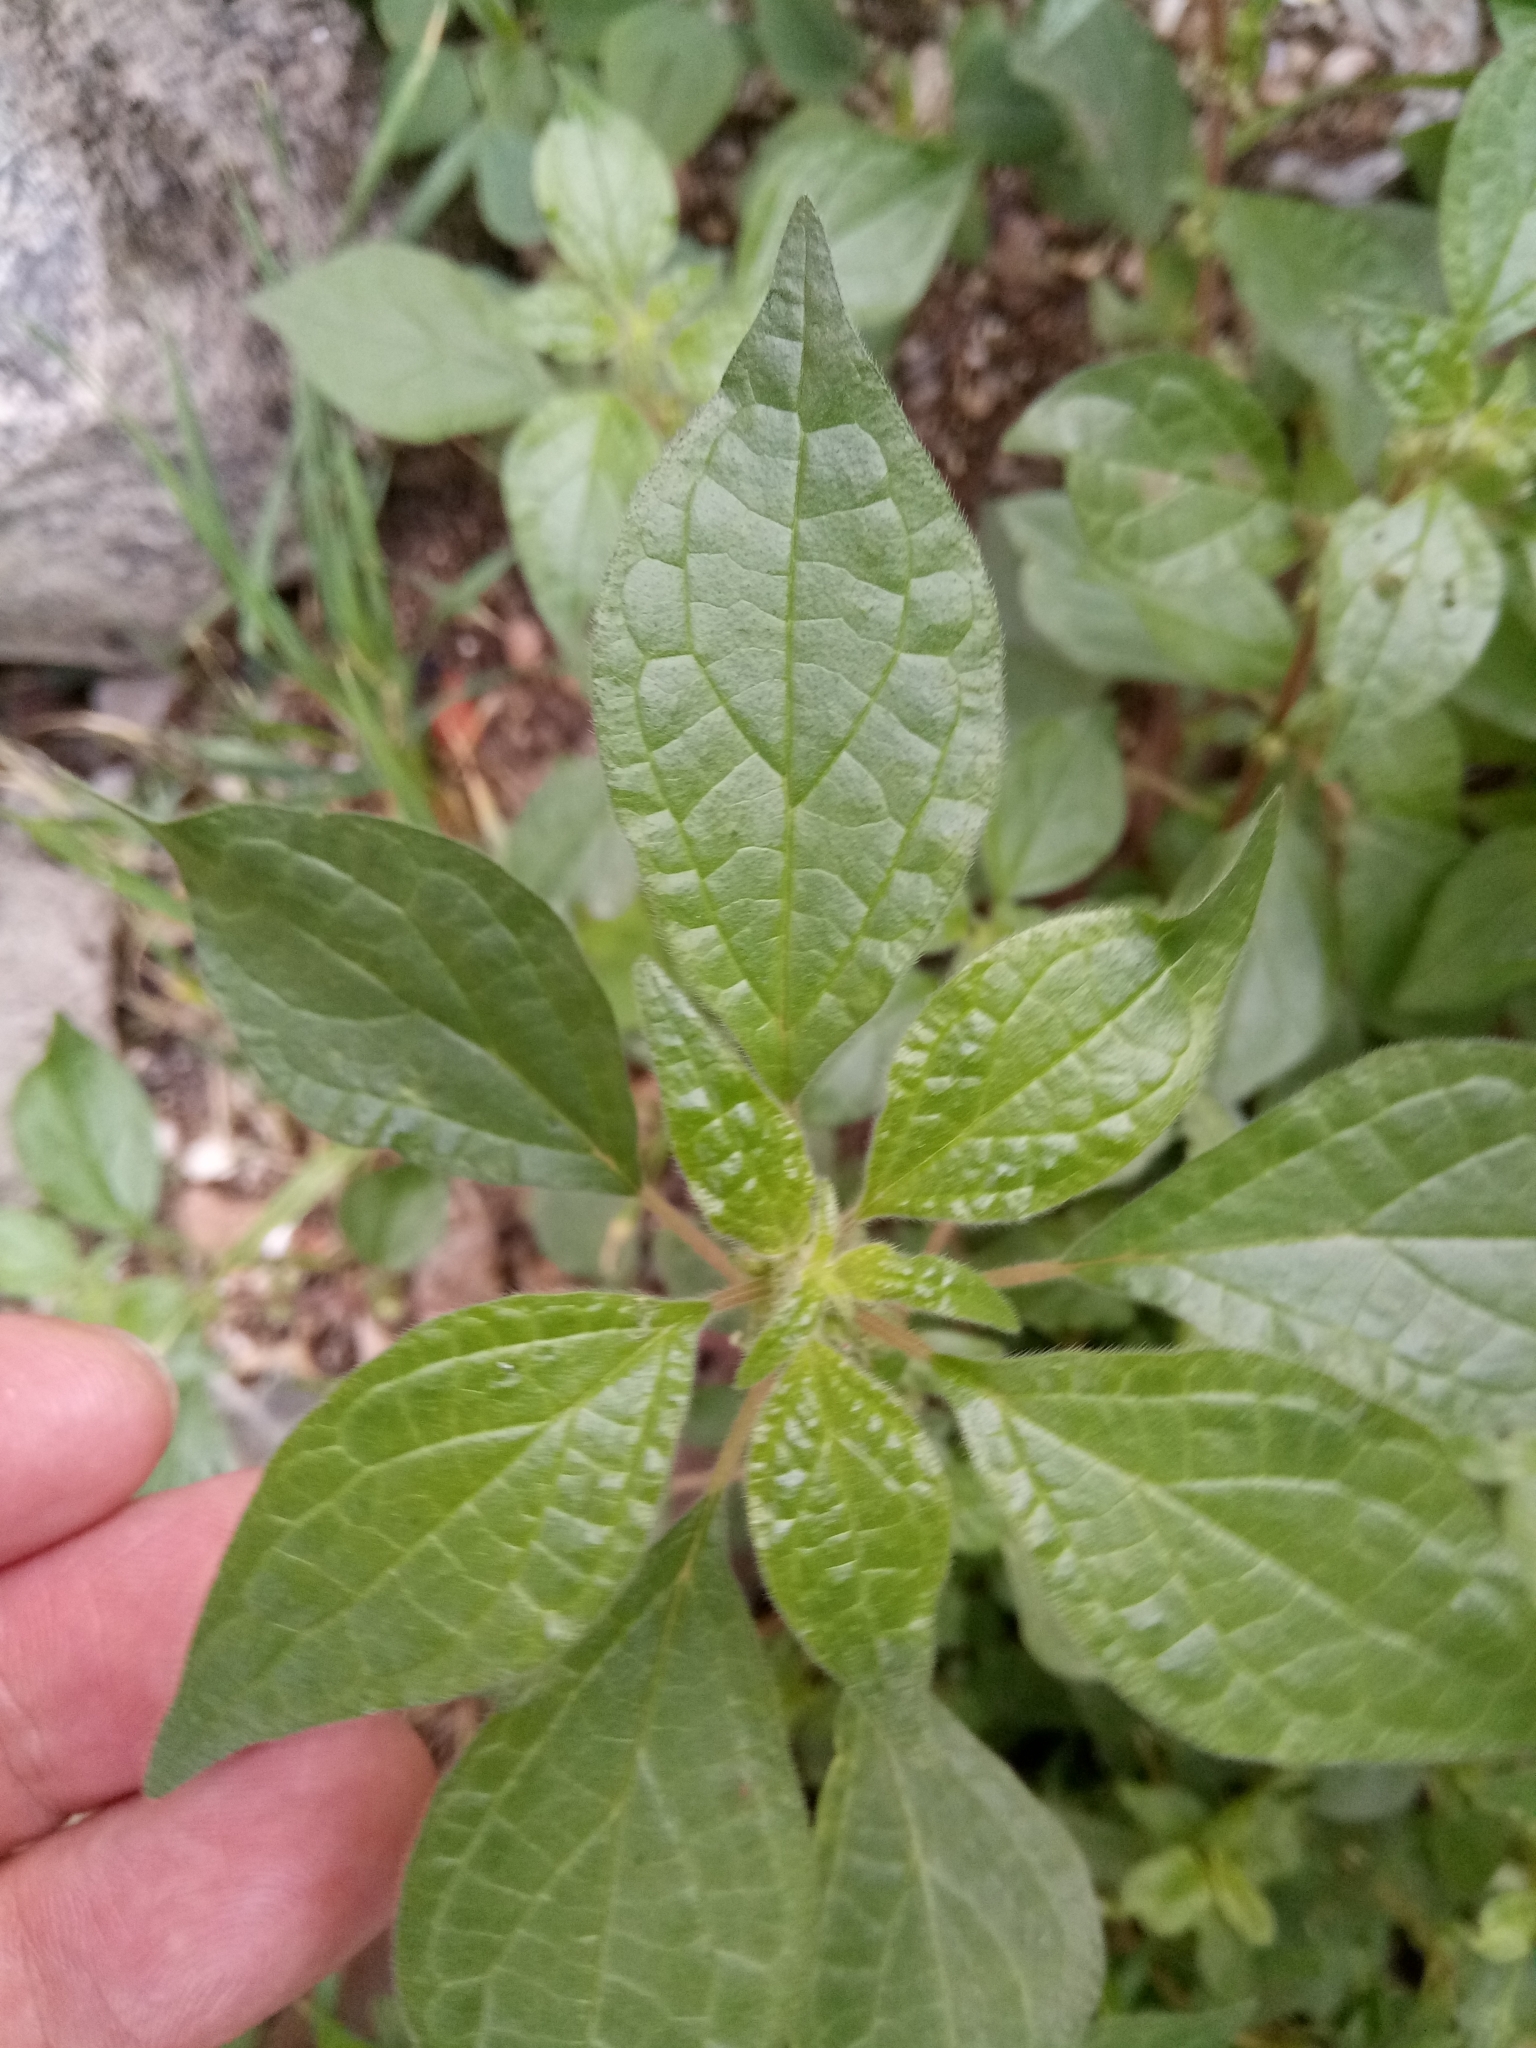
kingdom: Plantae
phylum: Tracheophyta
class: Magnoliopsida
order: Rosales
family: Urticaceae
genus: Parietaria
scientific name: Parietaria judaica
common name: Pellitory-of-the-wall
